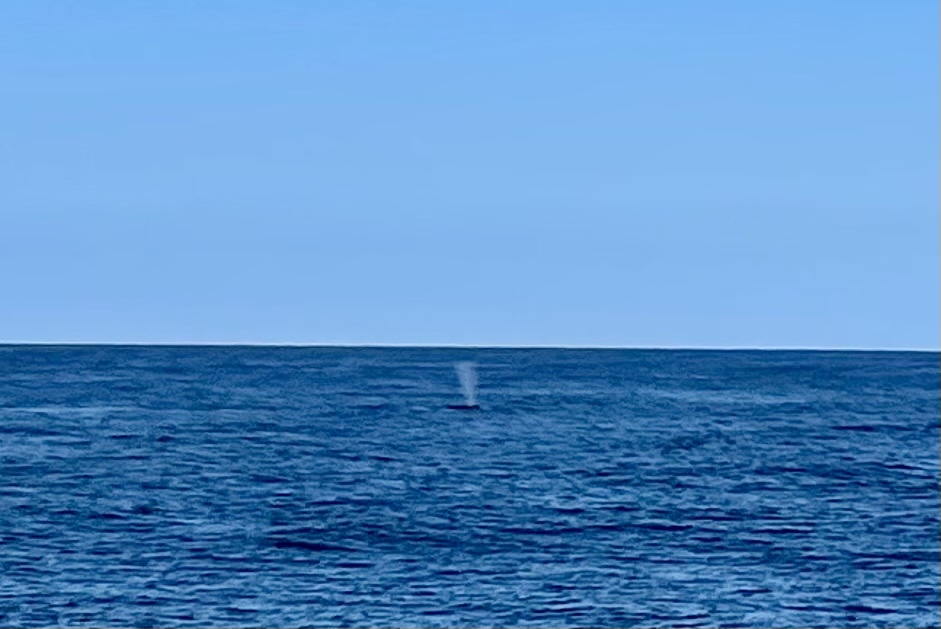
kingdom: Animalia
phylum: Chordata
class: Mammalia
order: Cetacea
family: Balaenopteridae
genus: Megaptera
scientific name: Megaptera novaeangliae
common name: Humpback whale
